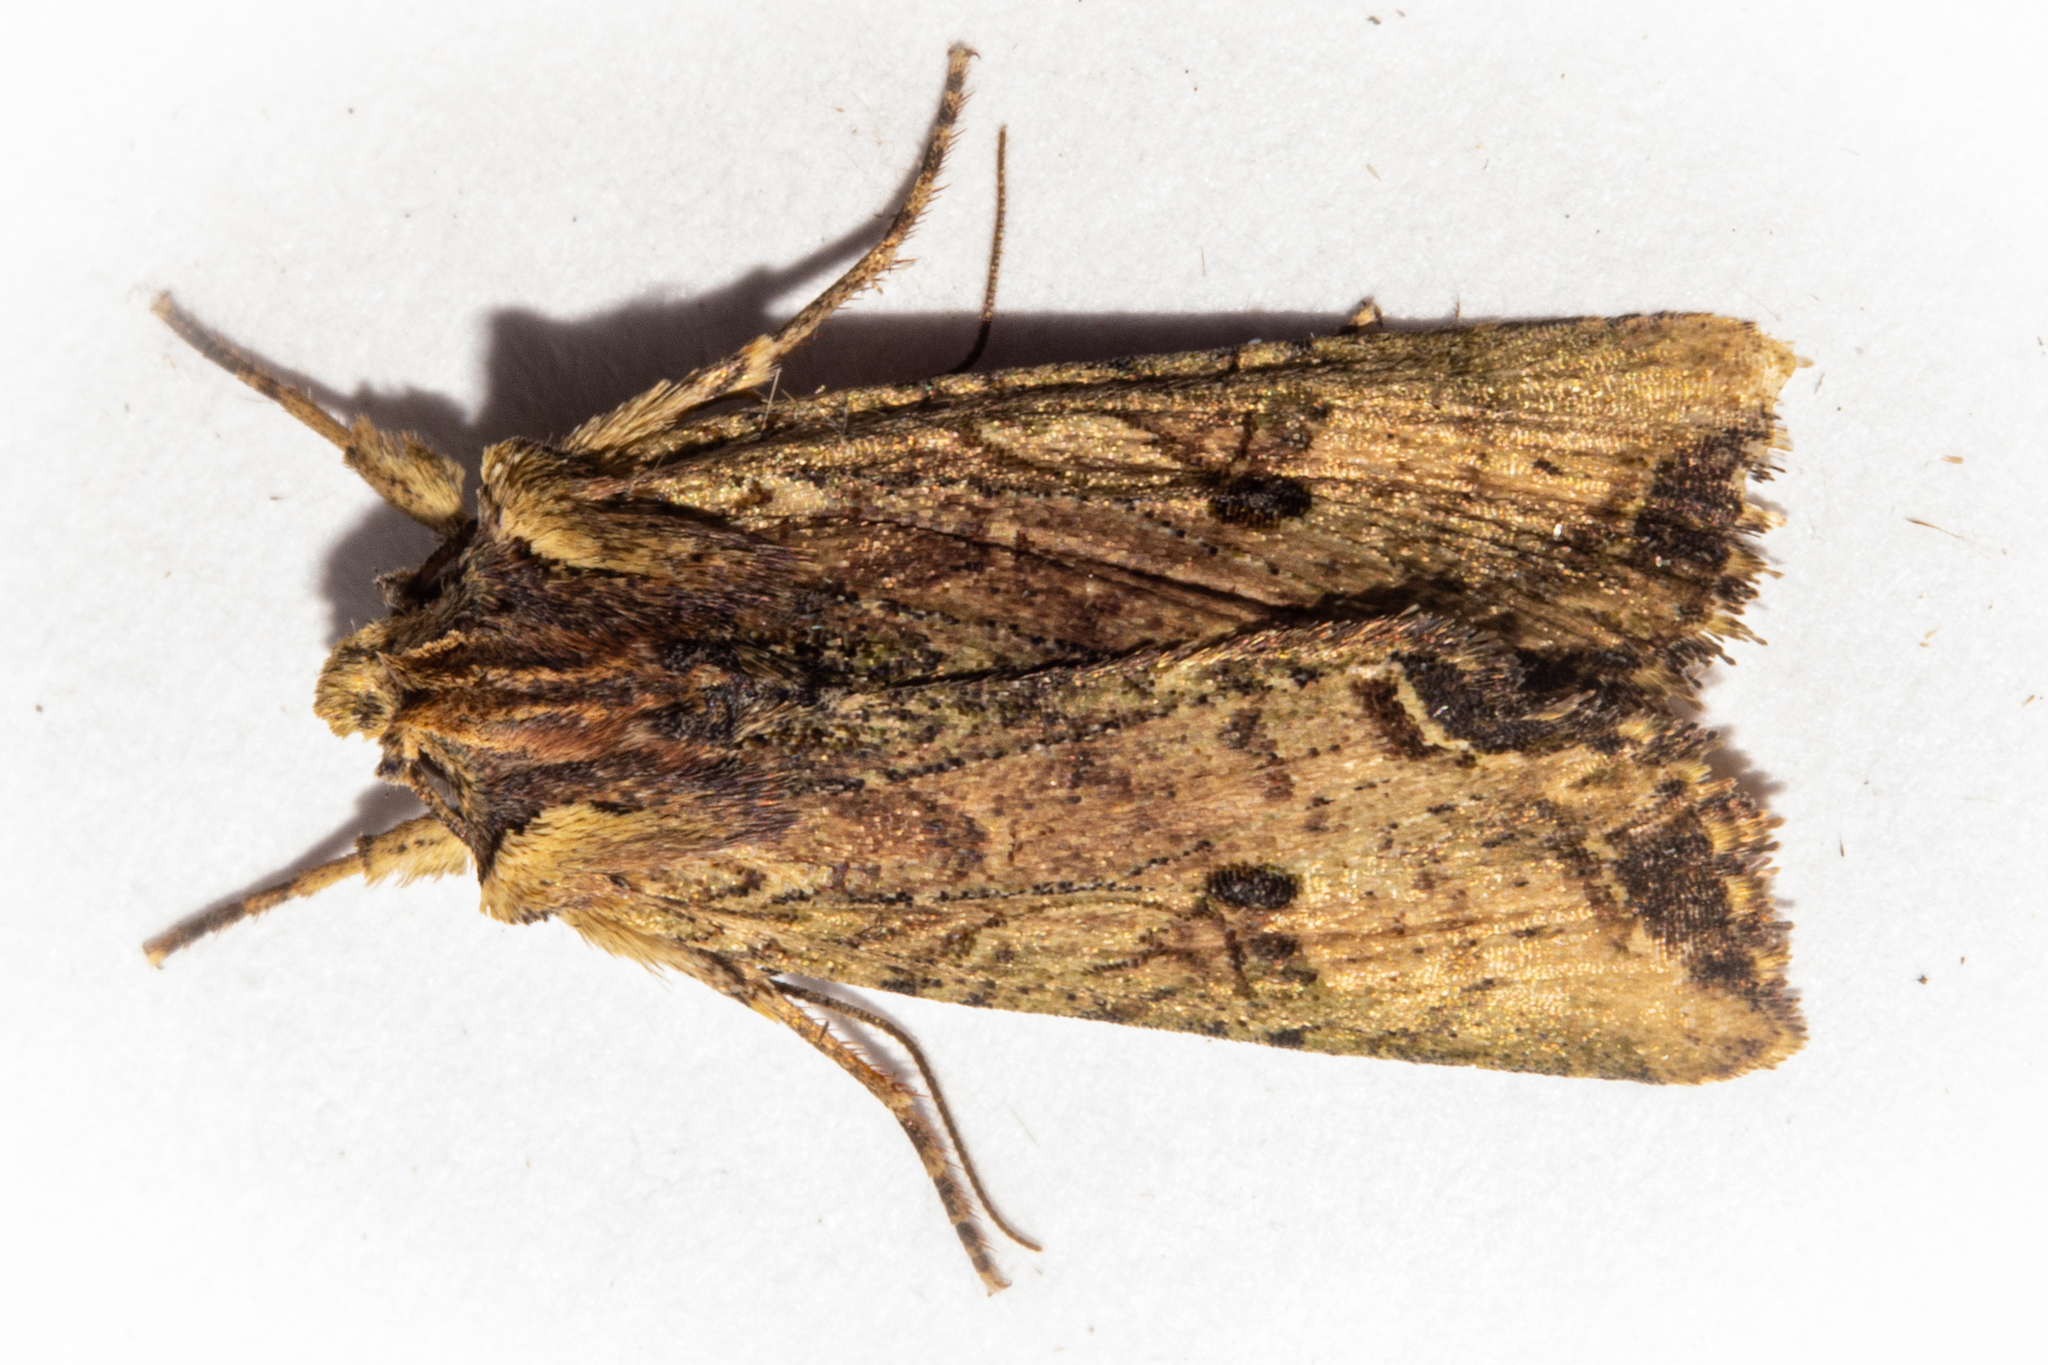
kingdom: Animalia
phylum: Arthropoda
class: Insecta
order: Lepidoptera
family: Noctuidae
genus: Meterana
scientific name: Meterana coeleno
